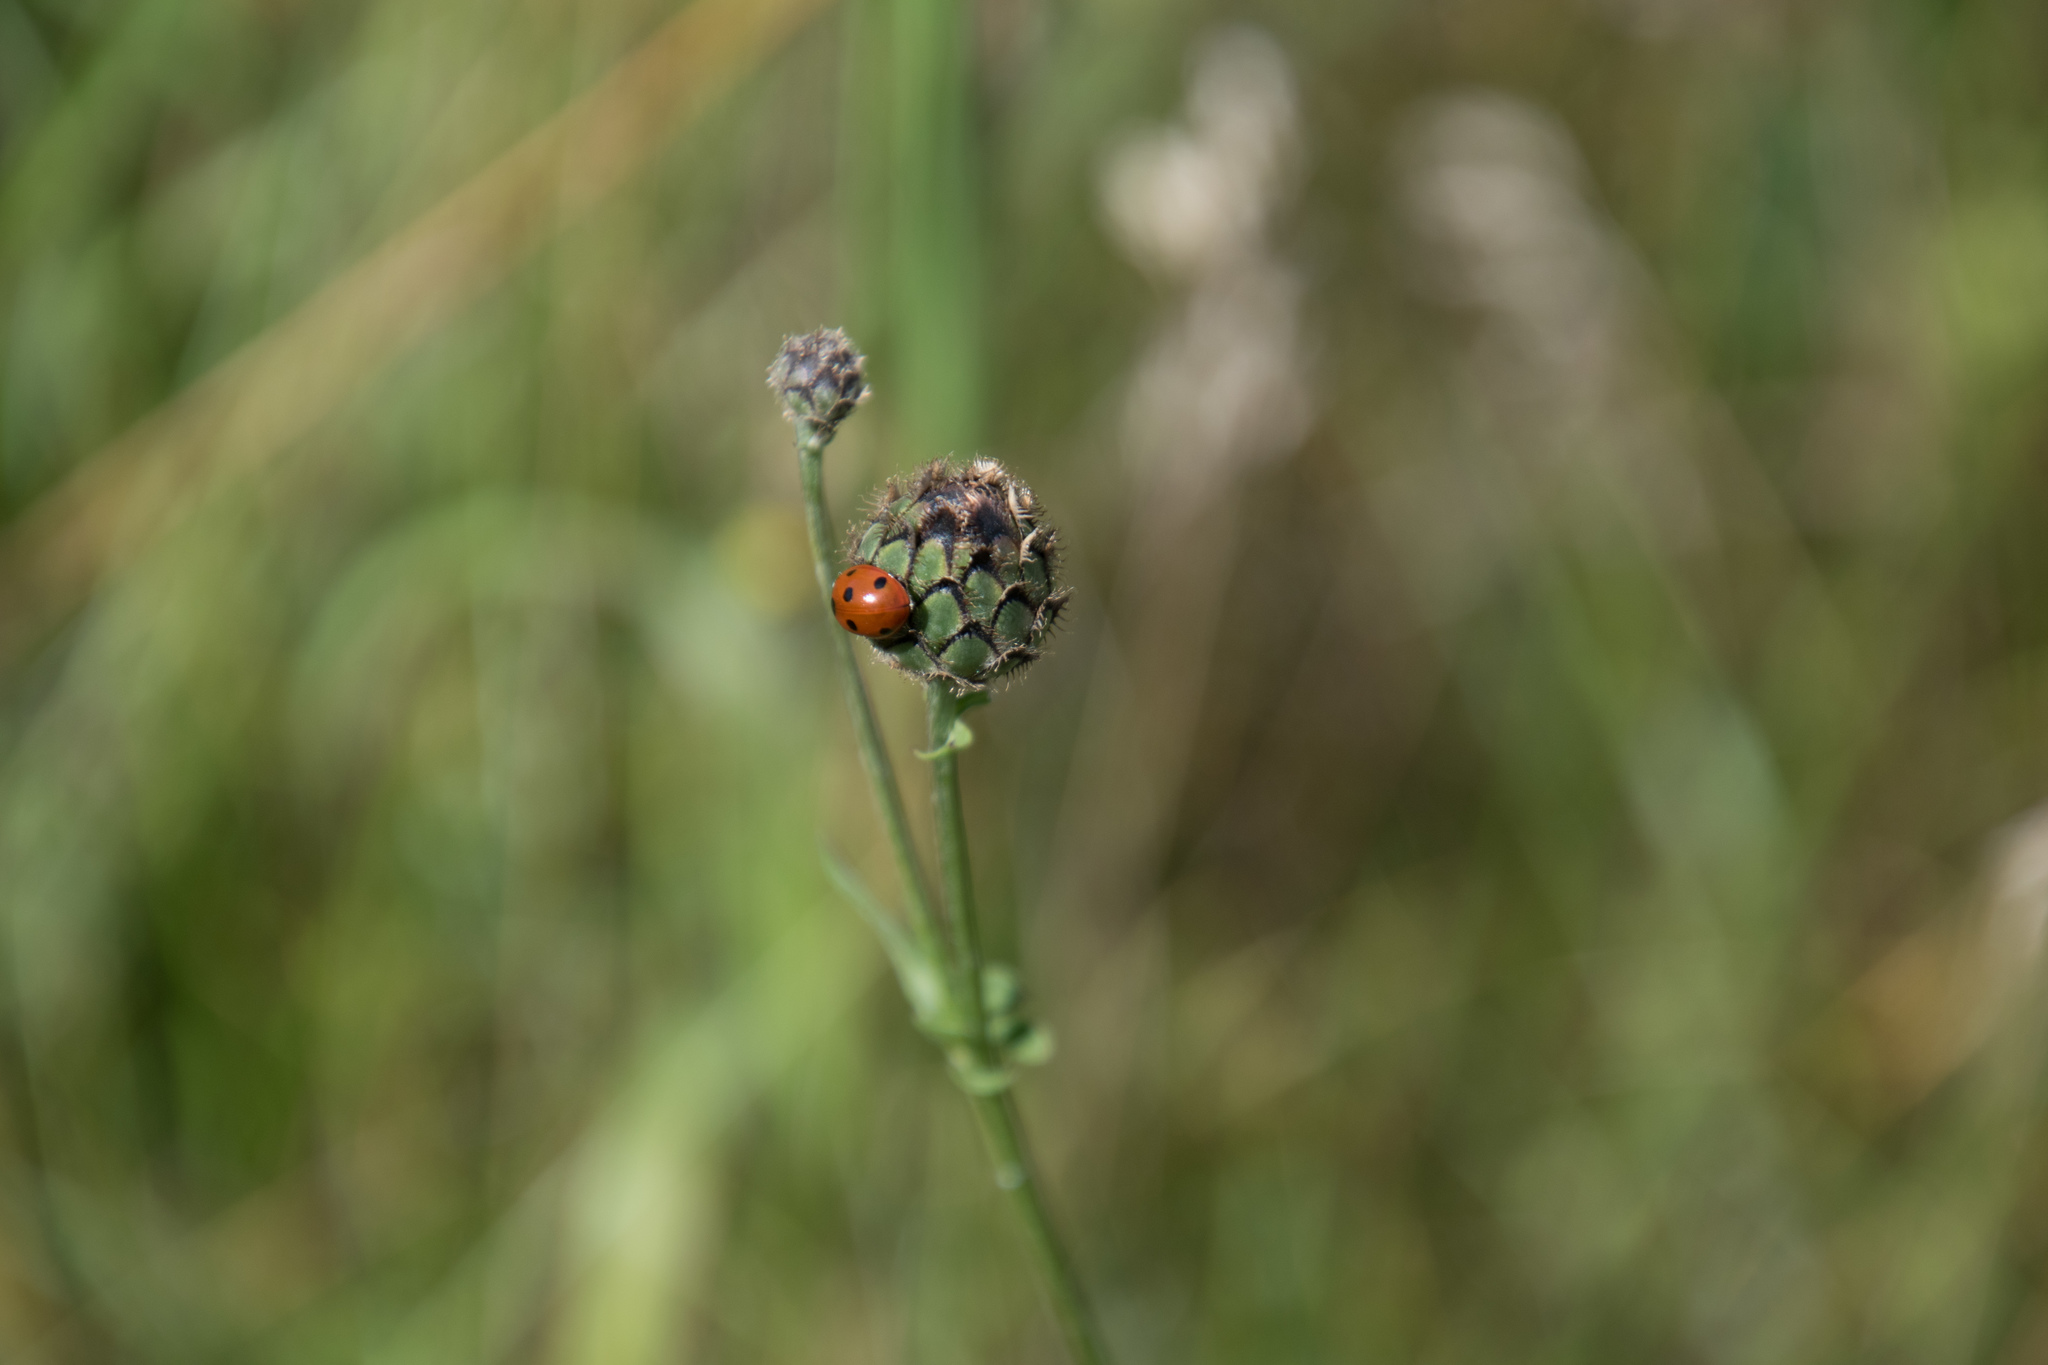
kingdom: Animalia
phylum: Arthropoda
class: Insecta
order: Coleoptera
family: Coccinellidae
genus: Coccinella
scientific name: Coccinella septempunctata
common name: Sevenspotted lady beetle
